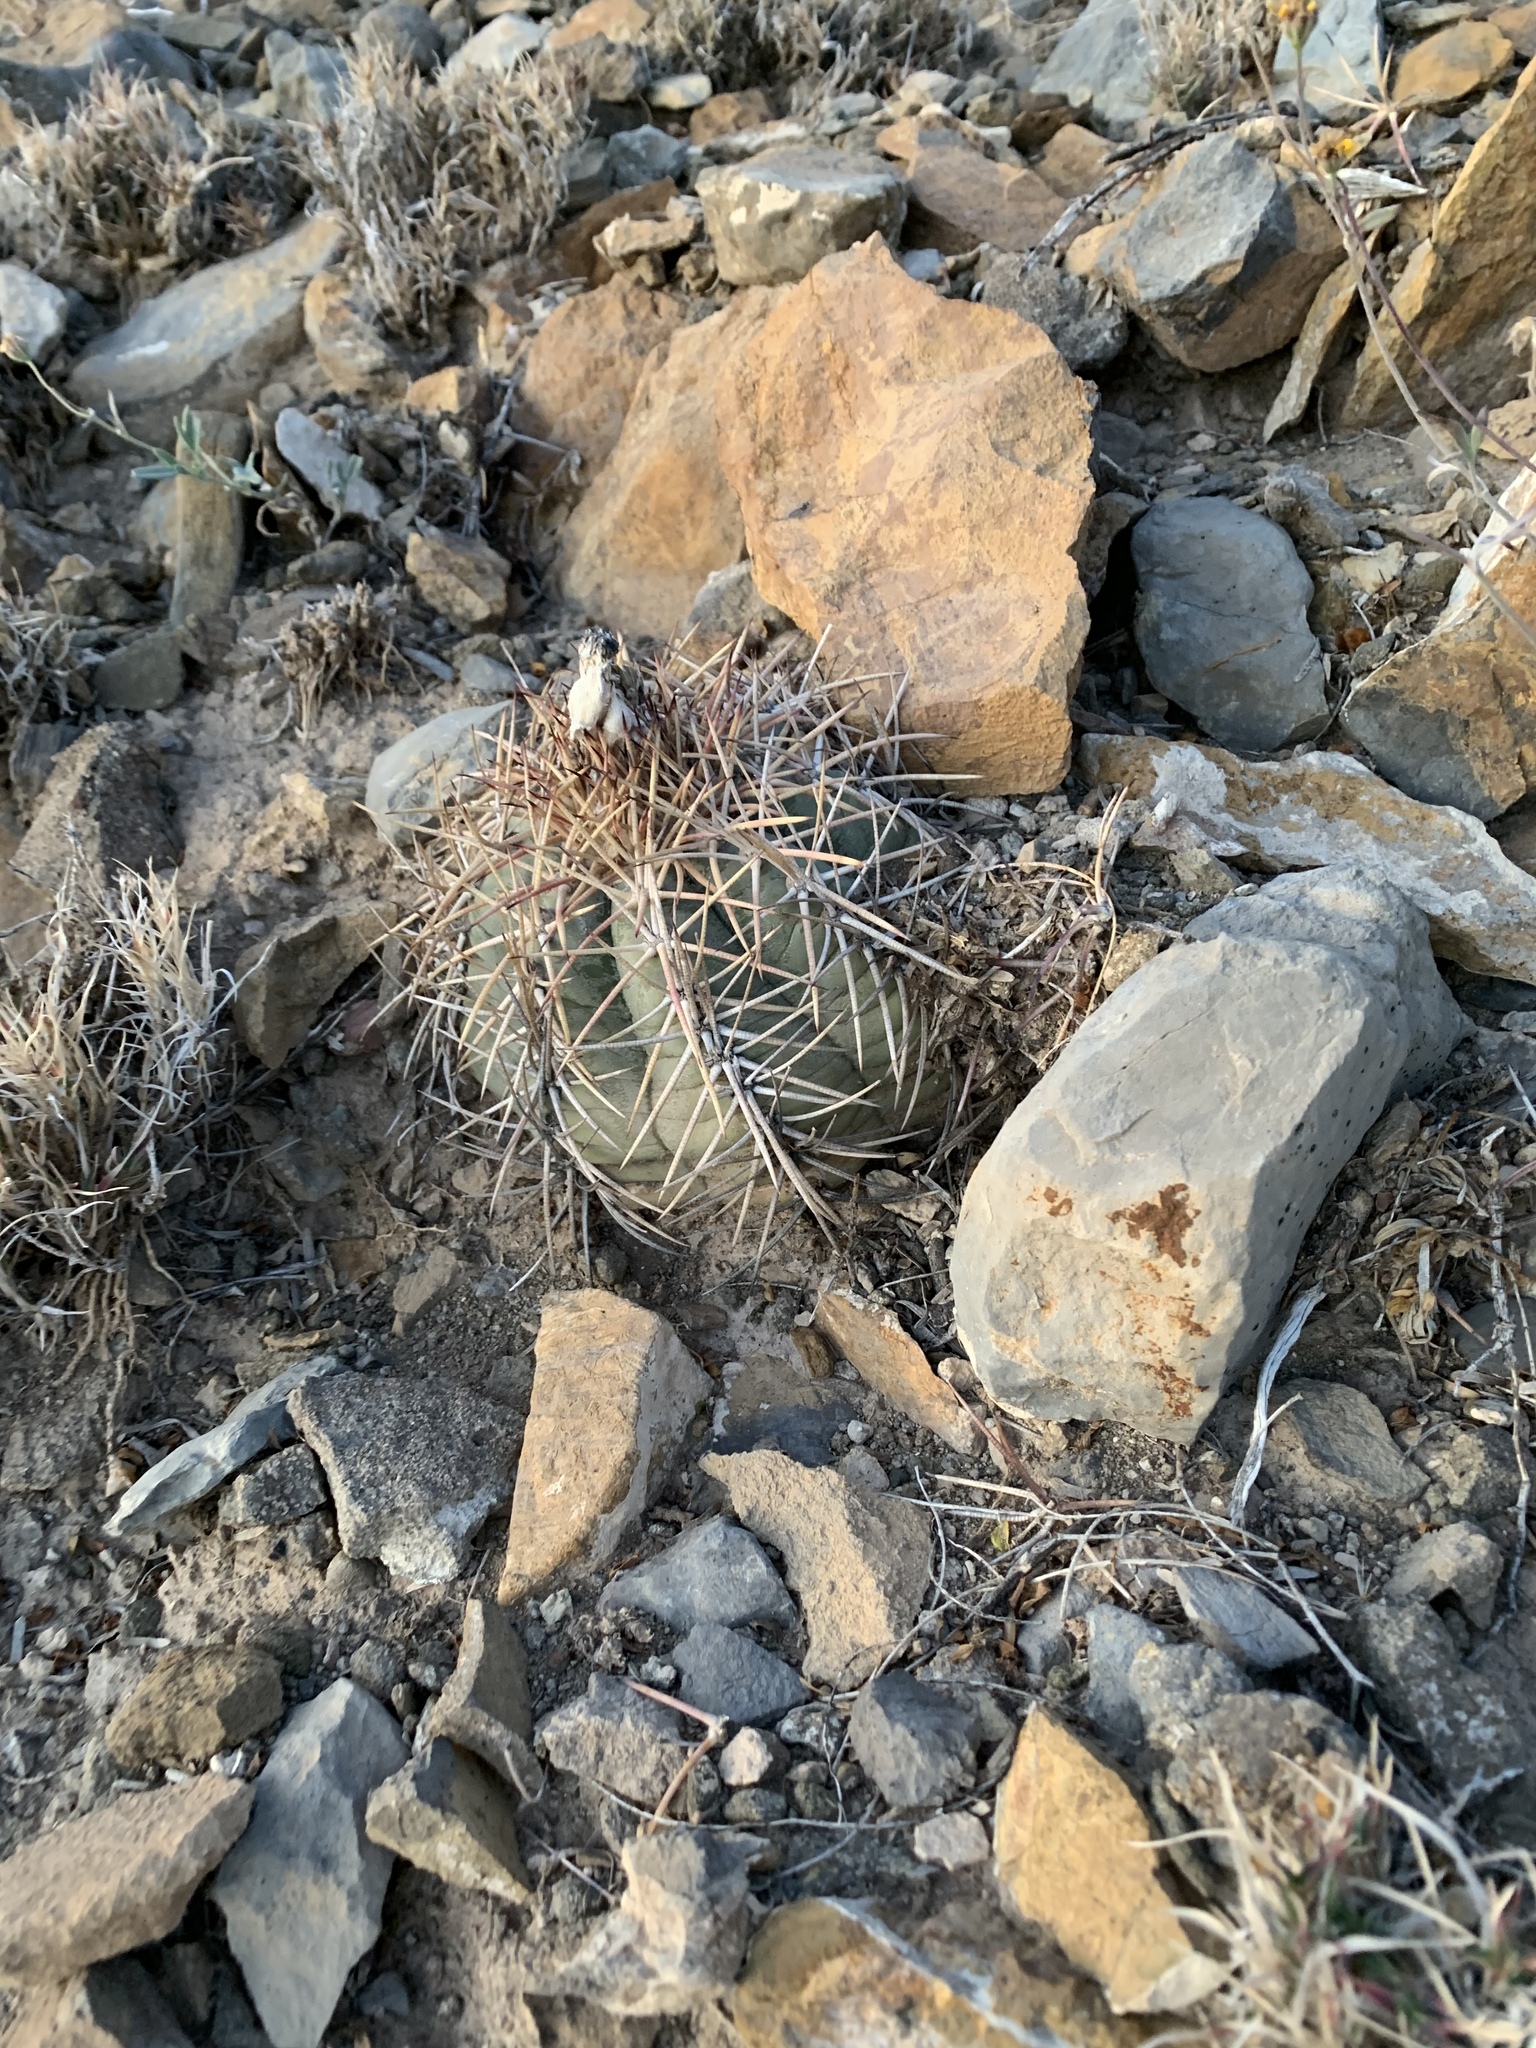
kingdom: Plantae
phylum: Tracheophyta
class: Magnoliopsida
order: Caryophyllales
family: Cactaceae
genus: Echinocactus
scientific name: Echinocactus horizonthalonius
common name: Devilshead
